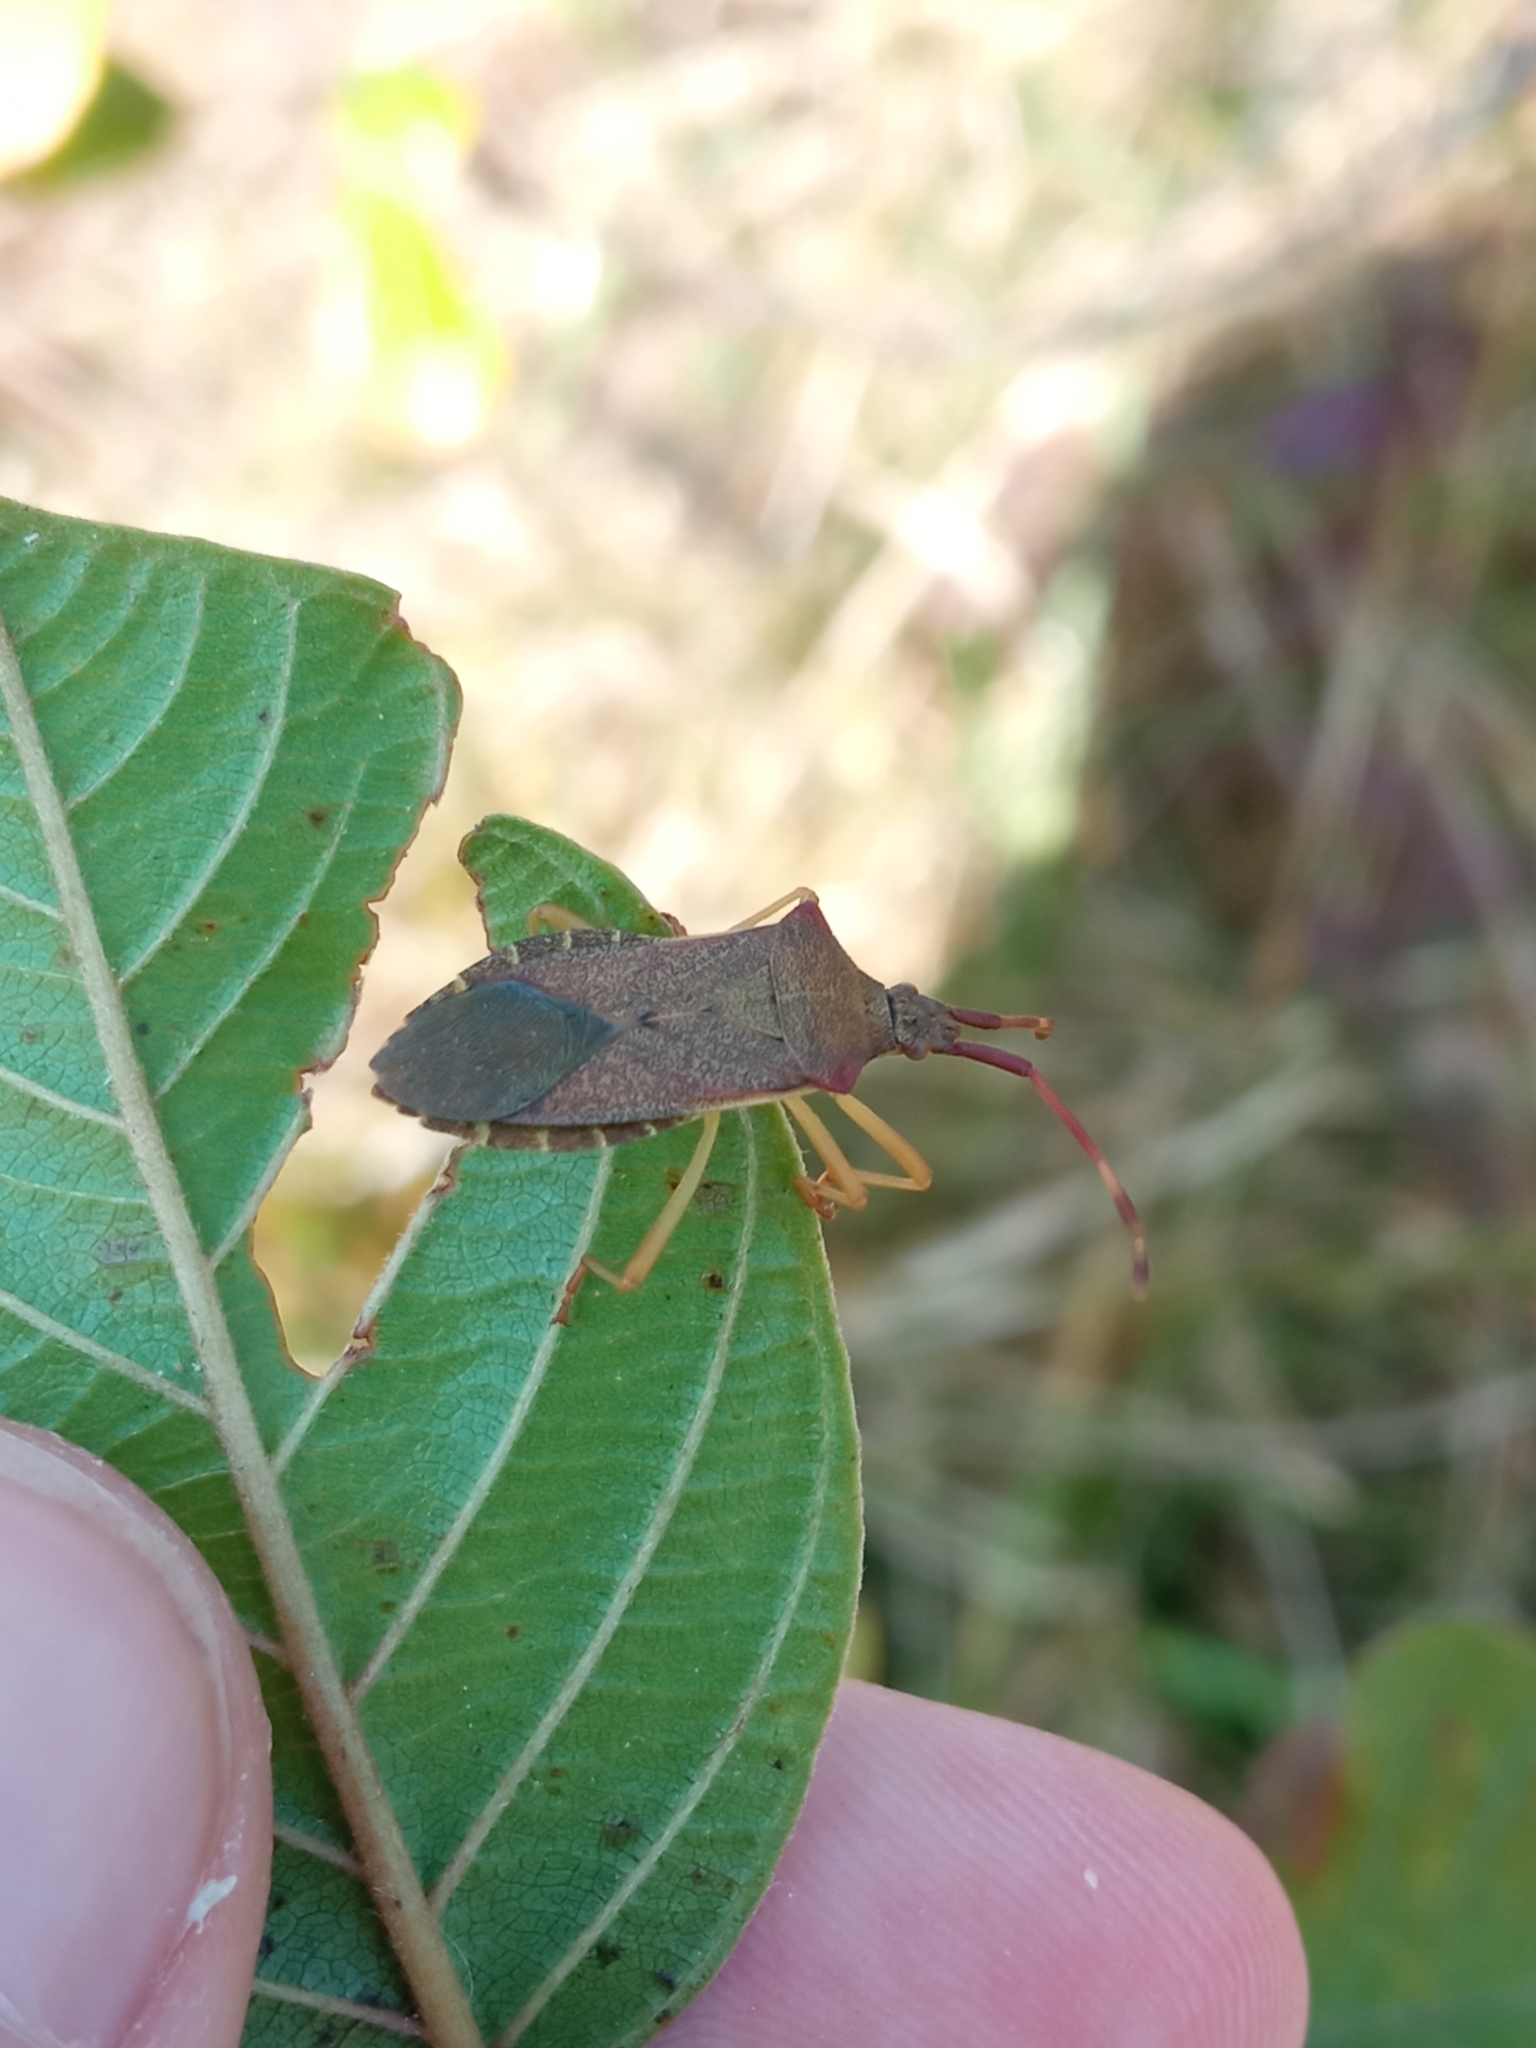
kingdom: Animalia
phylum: Arthropoda
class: Insecta
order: Hemiptera
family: Coreidae
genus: Gonocerus
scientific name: Gonocerus acuteangulatus
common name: Box bug
